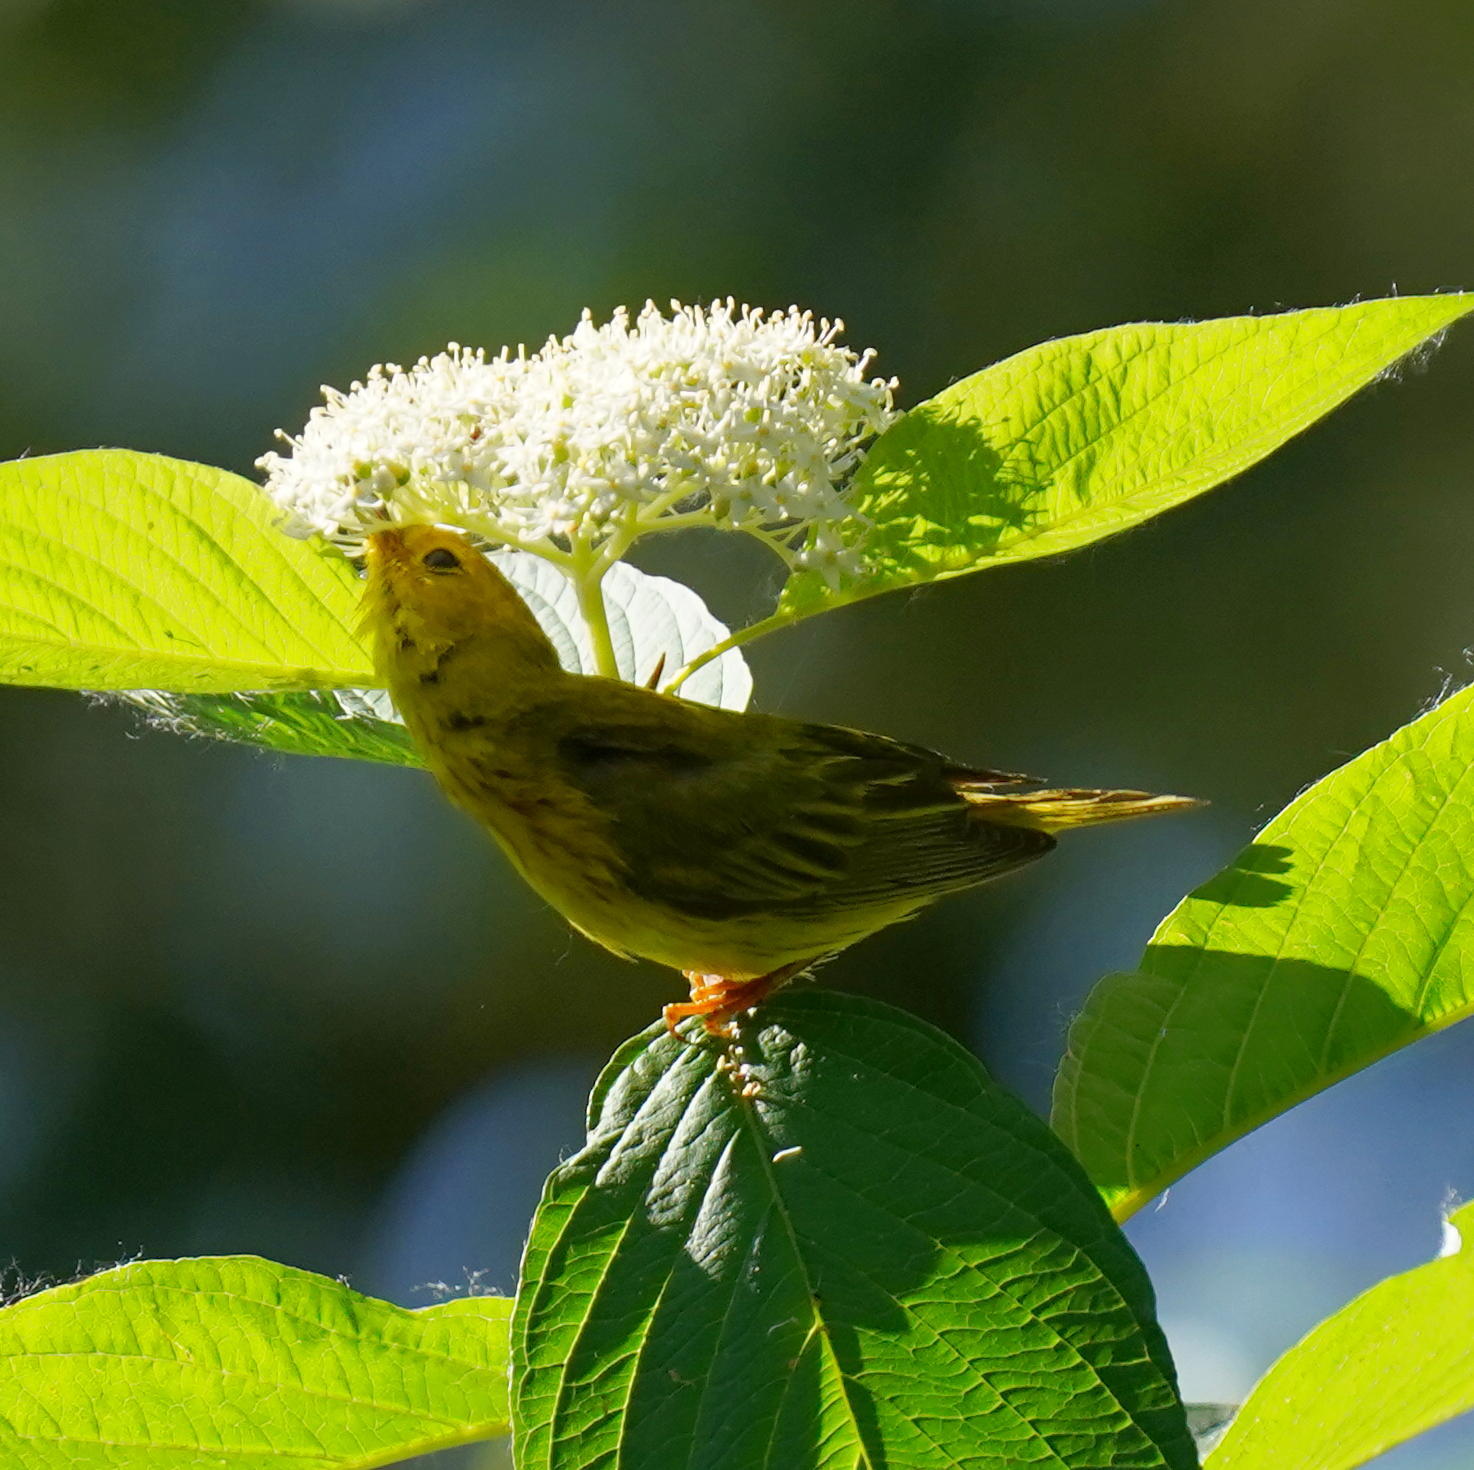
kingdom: Animalia
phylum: Chordata
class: Aves
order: Passeriformes
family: Parulidae
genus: Setophaga
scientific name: Setophaga petechia
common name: Yellow warbler
